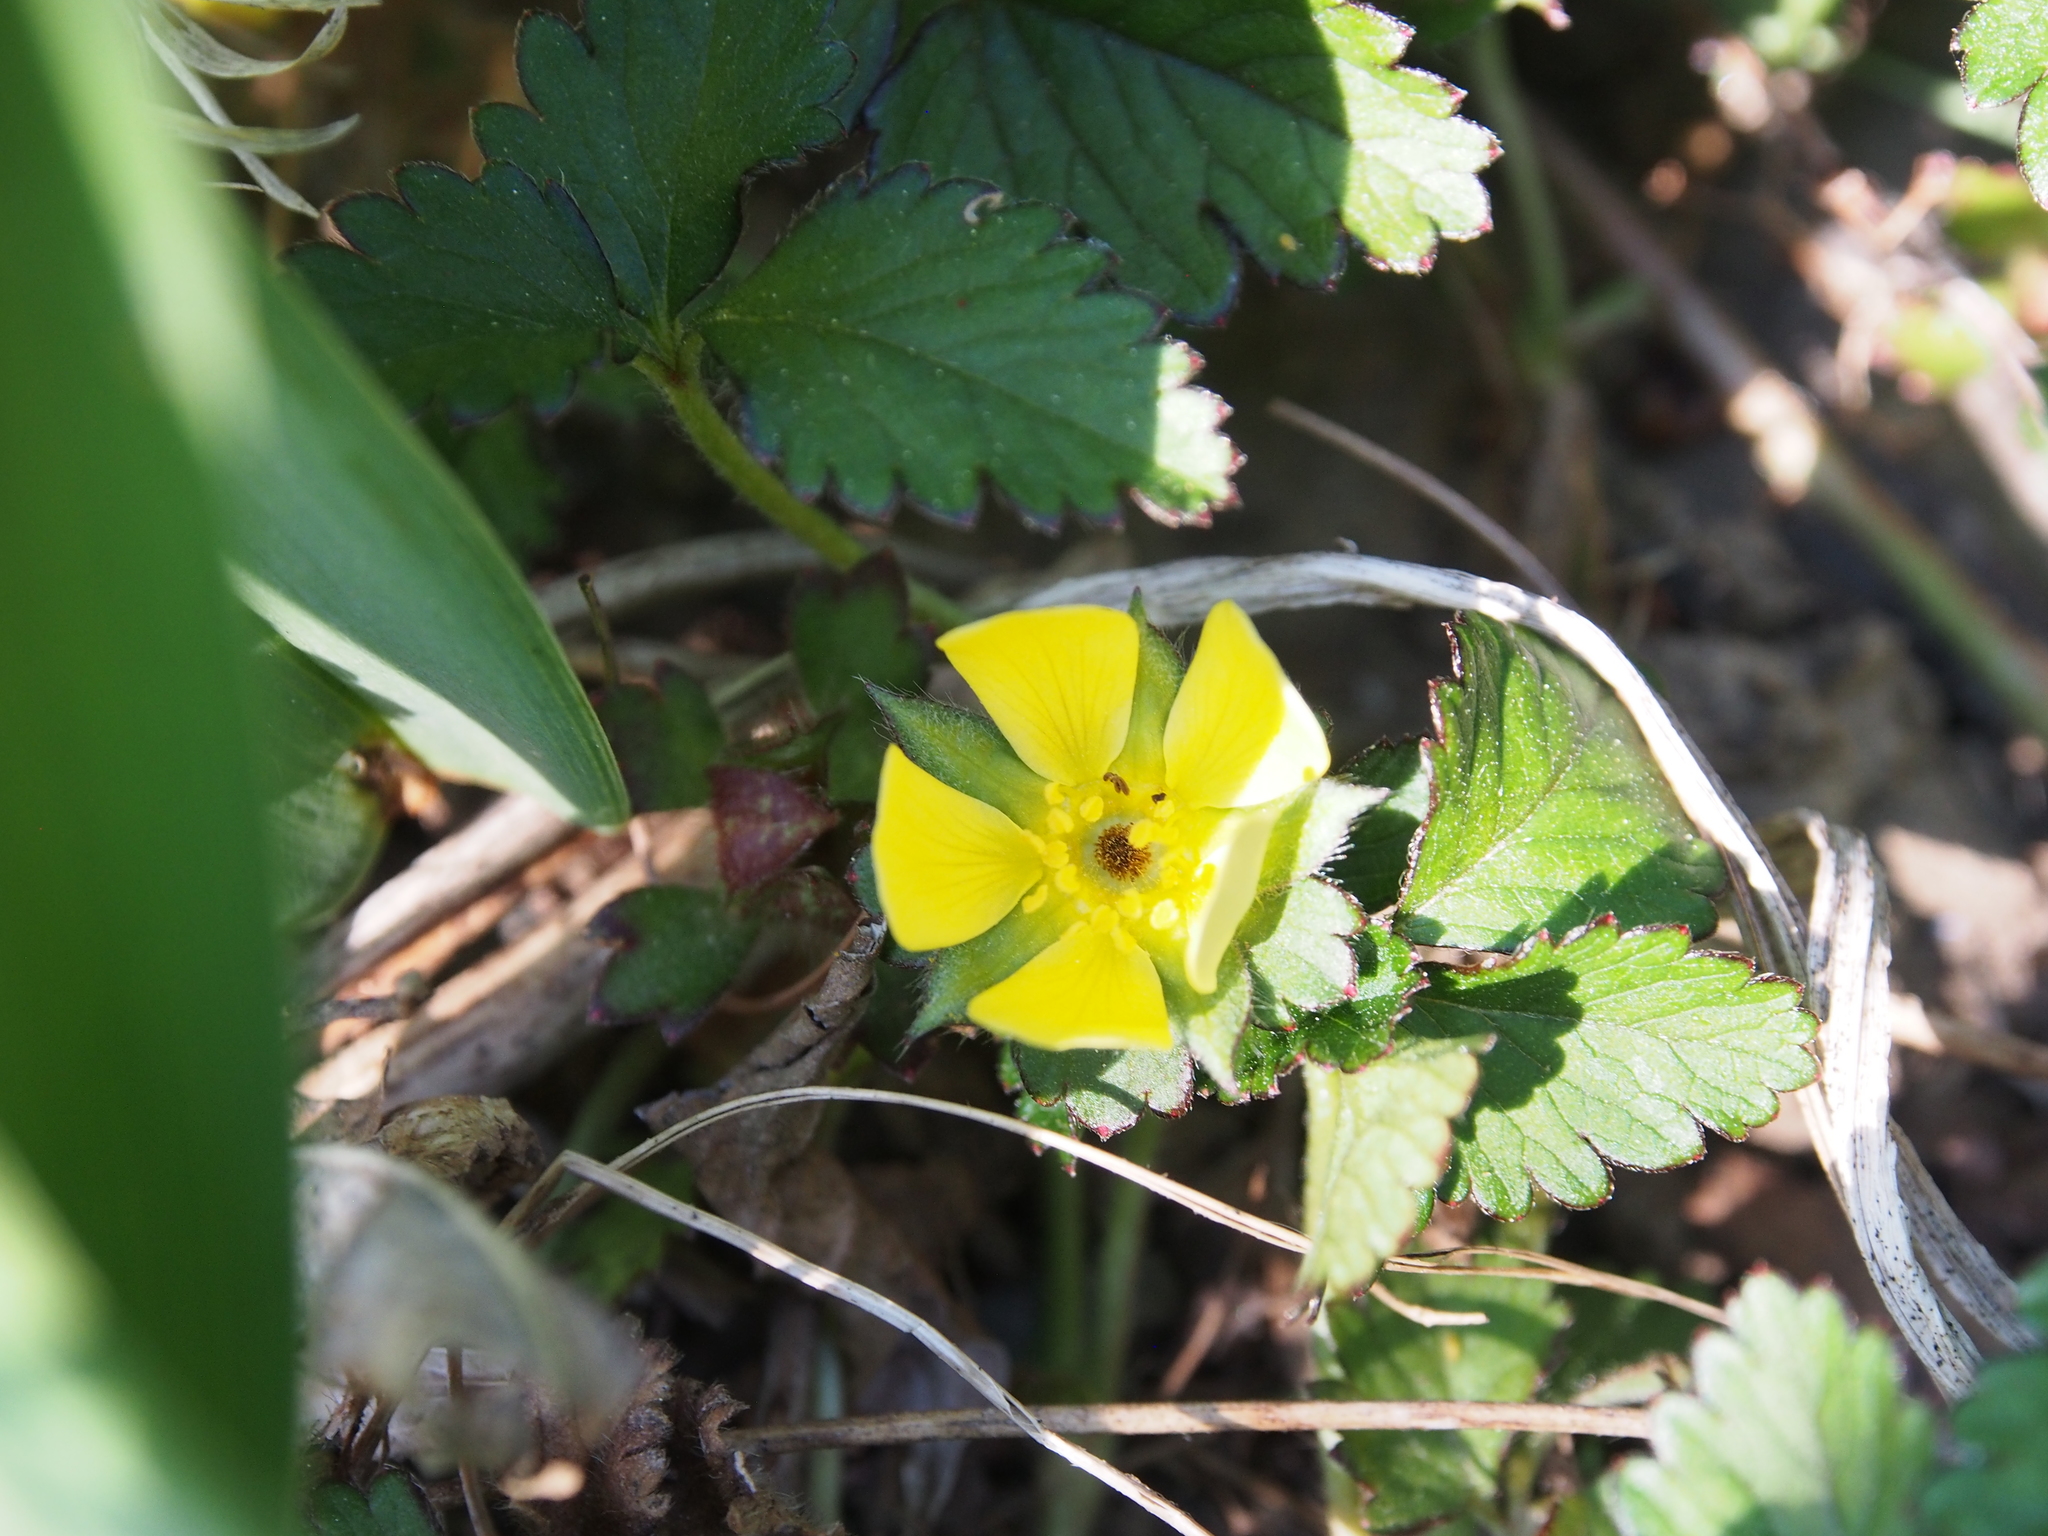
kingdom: Plantae
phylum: Tracheophyta
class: Magnoliopsida
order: Rosales
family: Rosaceae
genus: Potentilla
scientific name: Potentilla indica
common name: Yellow-flowered strawberry
